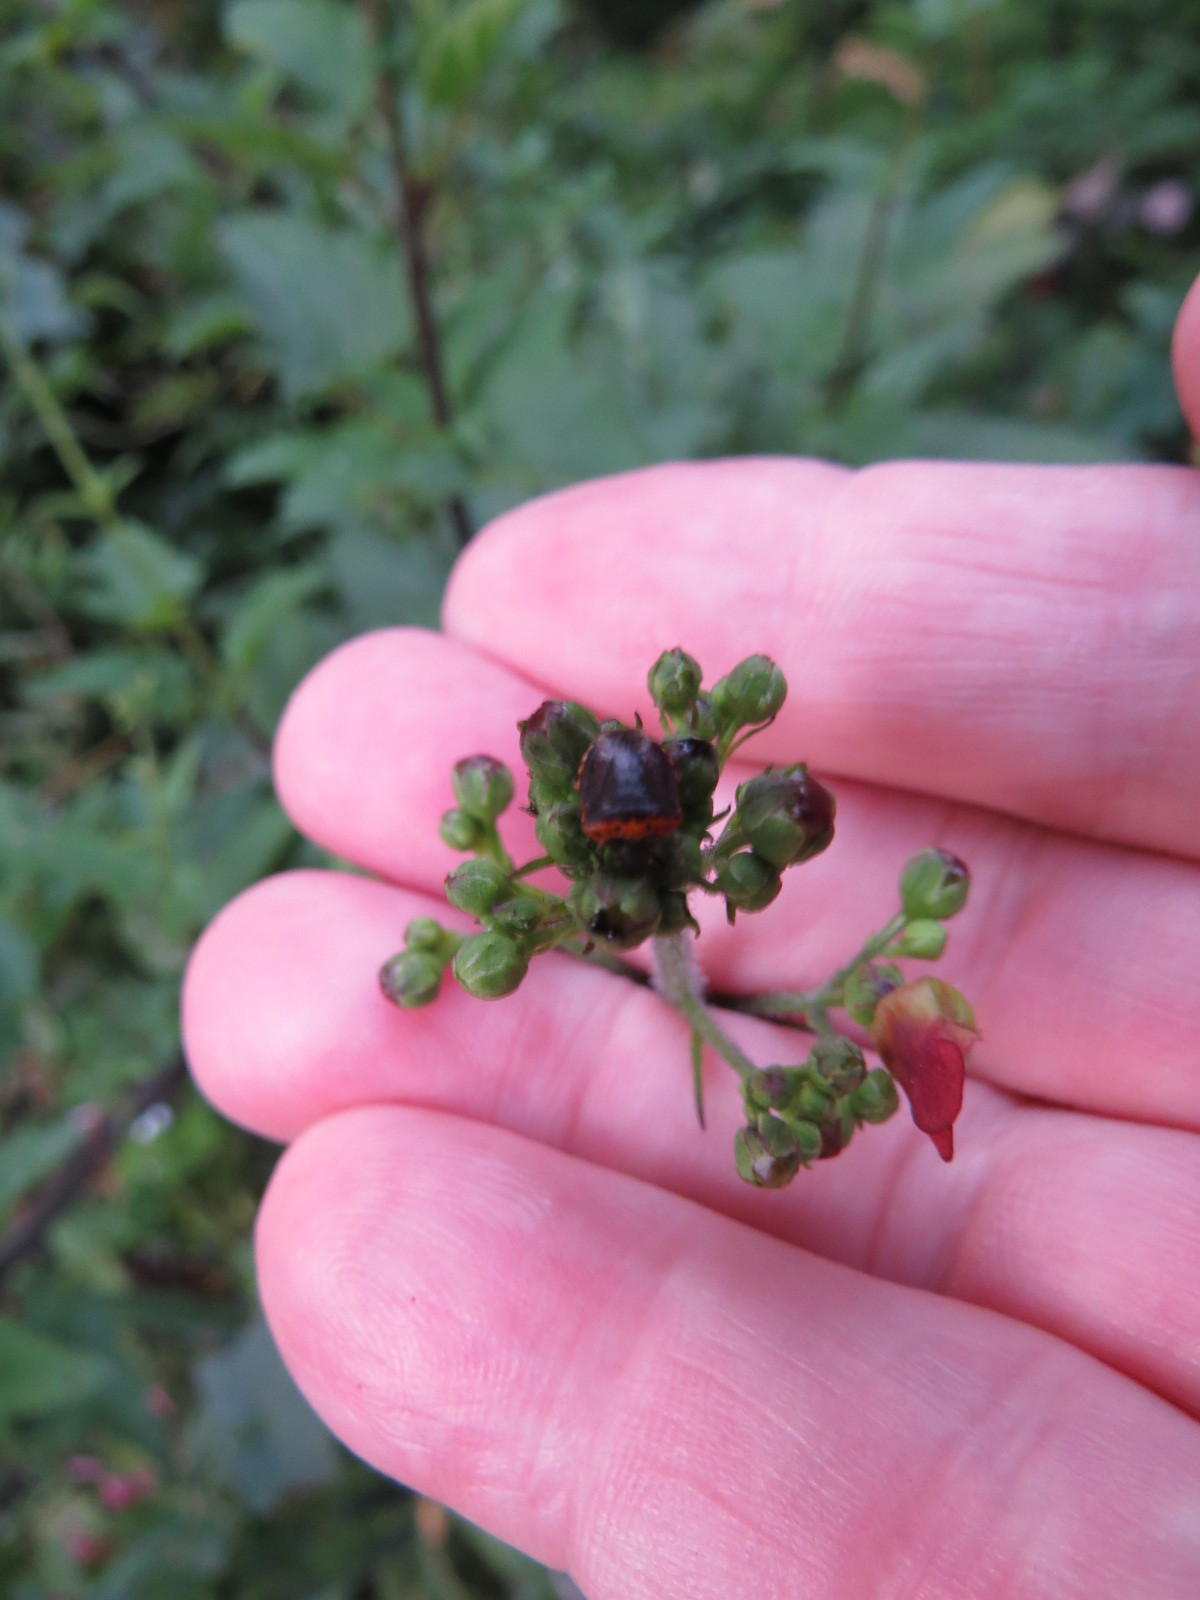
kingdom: Animalia
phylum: Arthropoda
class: Insecta
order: Hemiptera
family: Pentatomidae
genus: Cosmopepla
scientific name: Cosmopepla uhleri
